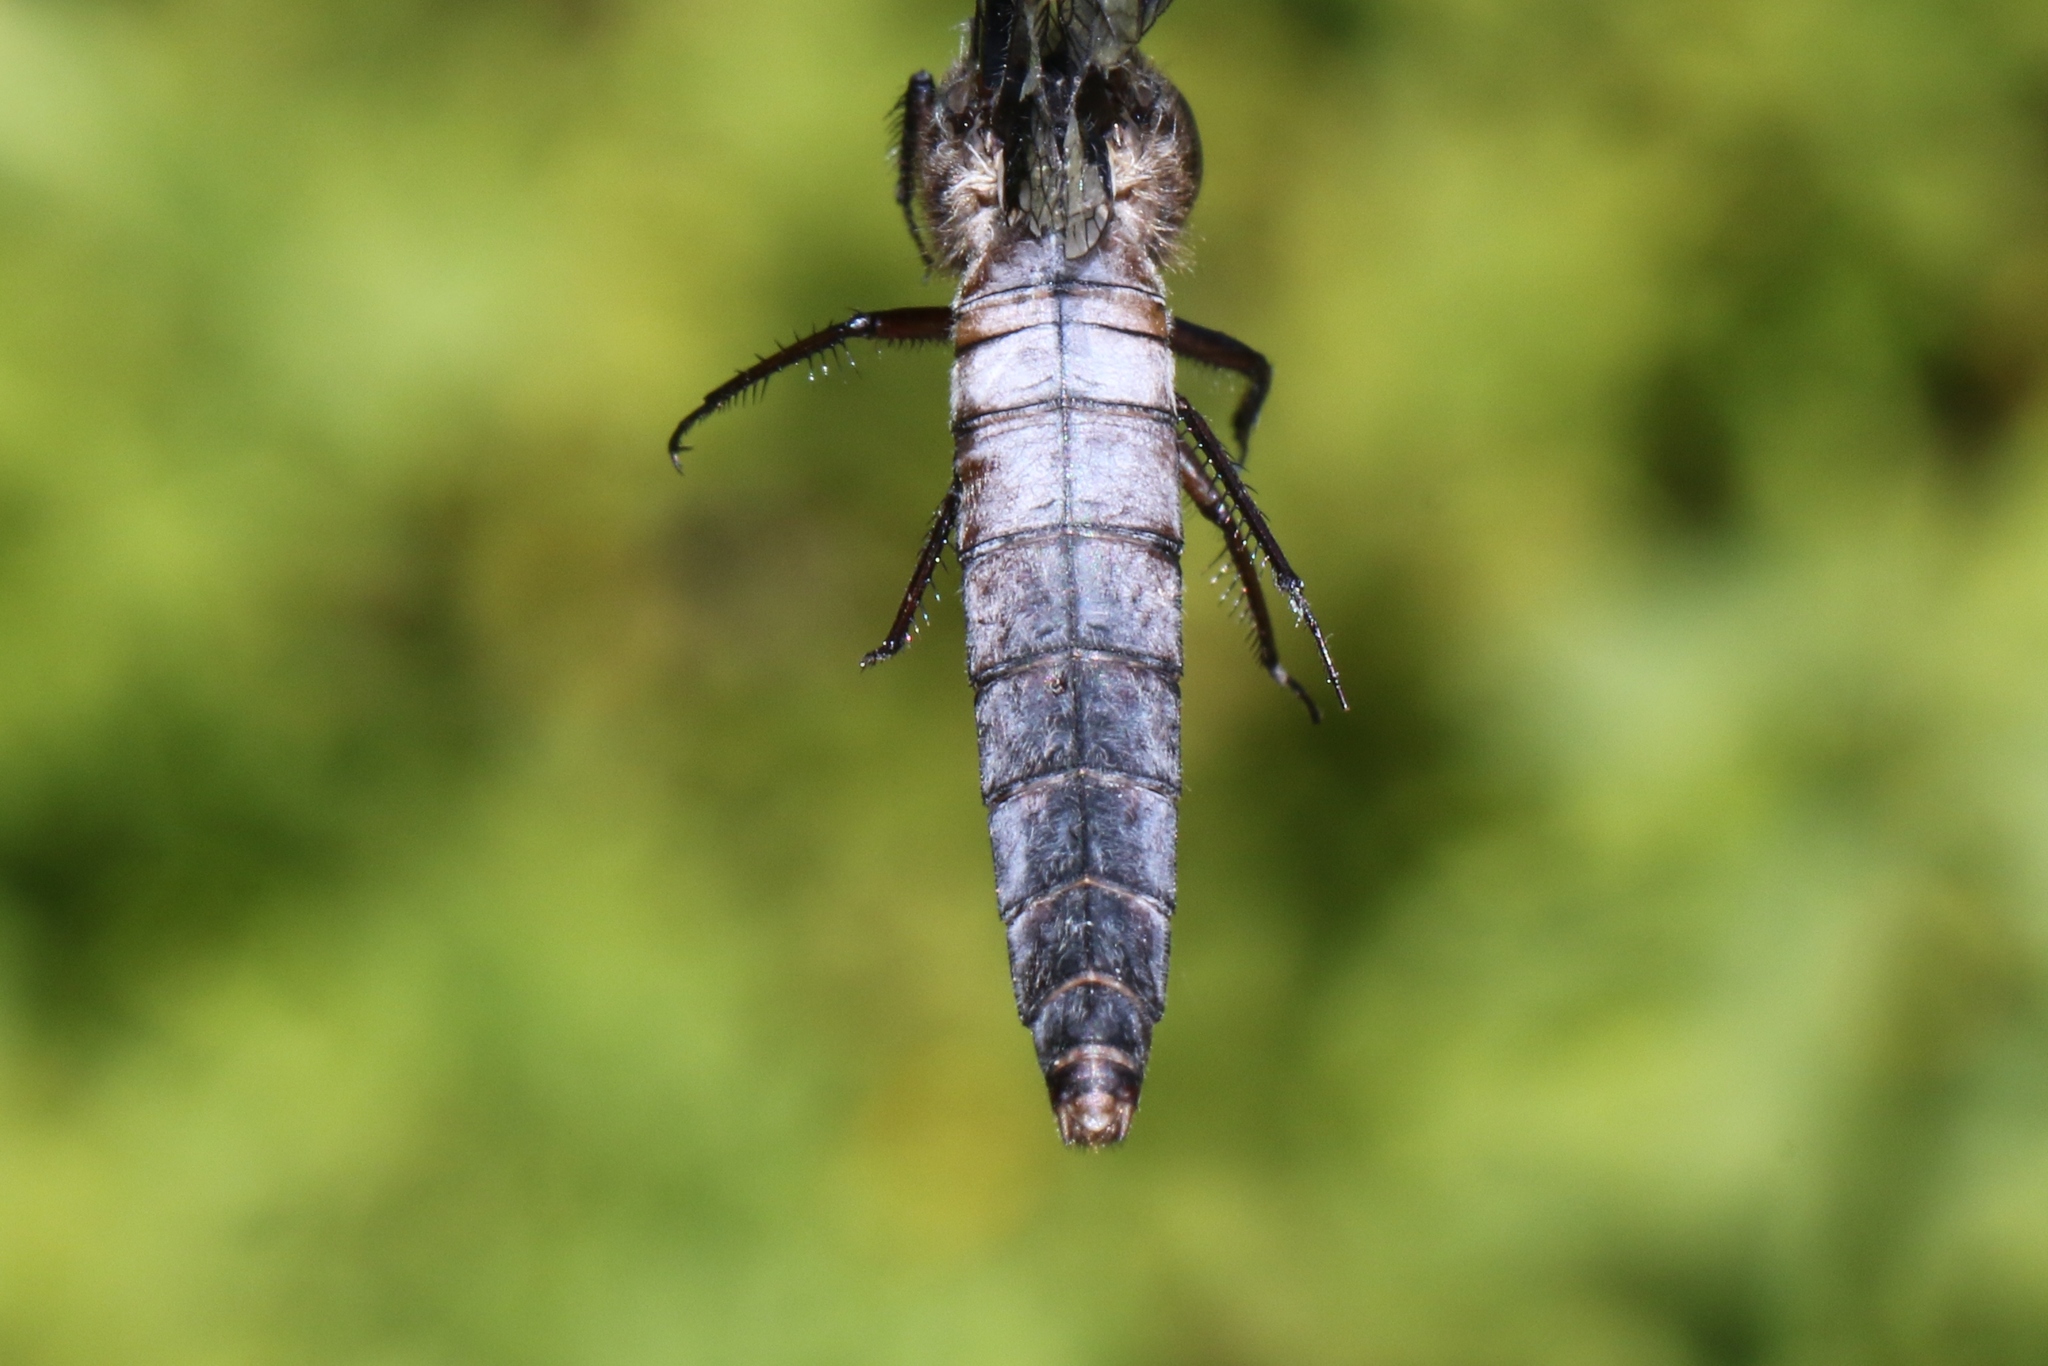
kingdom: Animalia
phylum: Arthropoda
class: Insecta
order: Odonata
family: Libellulidae
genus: Ladona
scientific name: Ladona julia
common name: Chalk-fronted corporal
